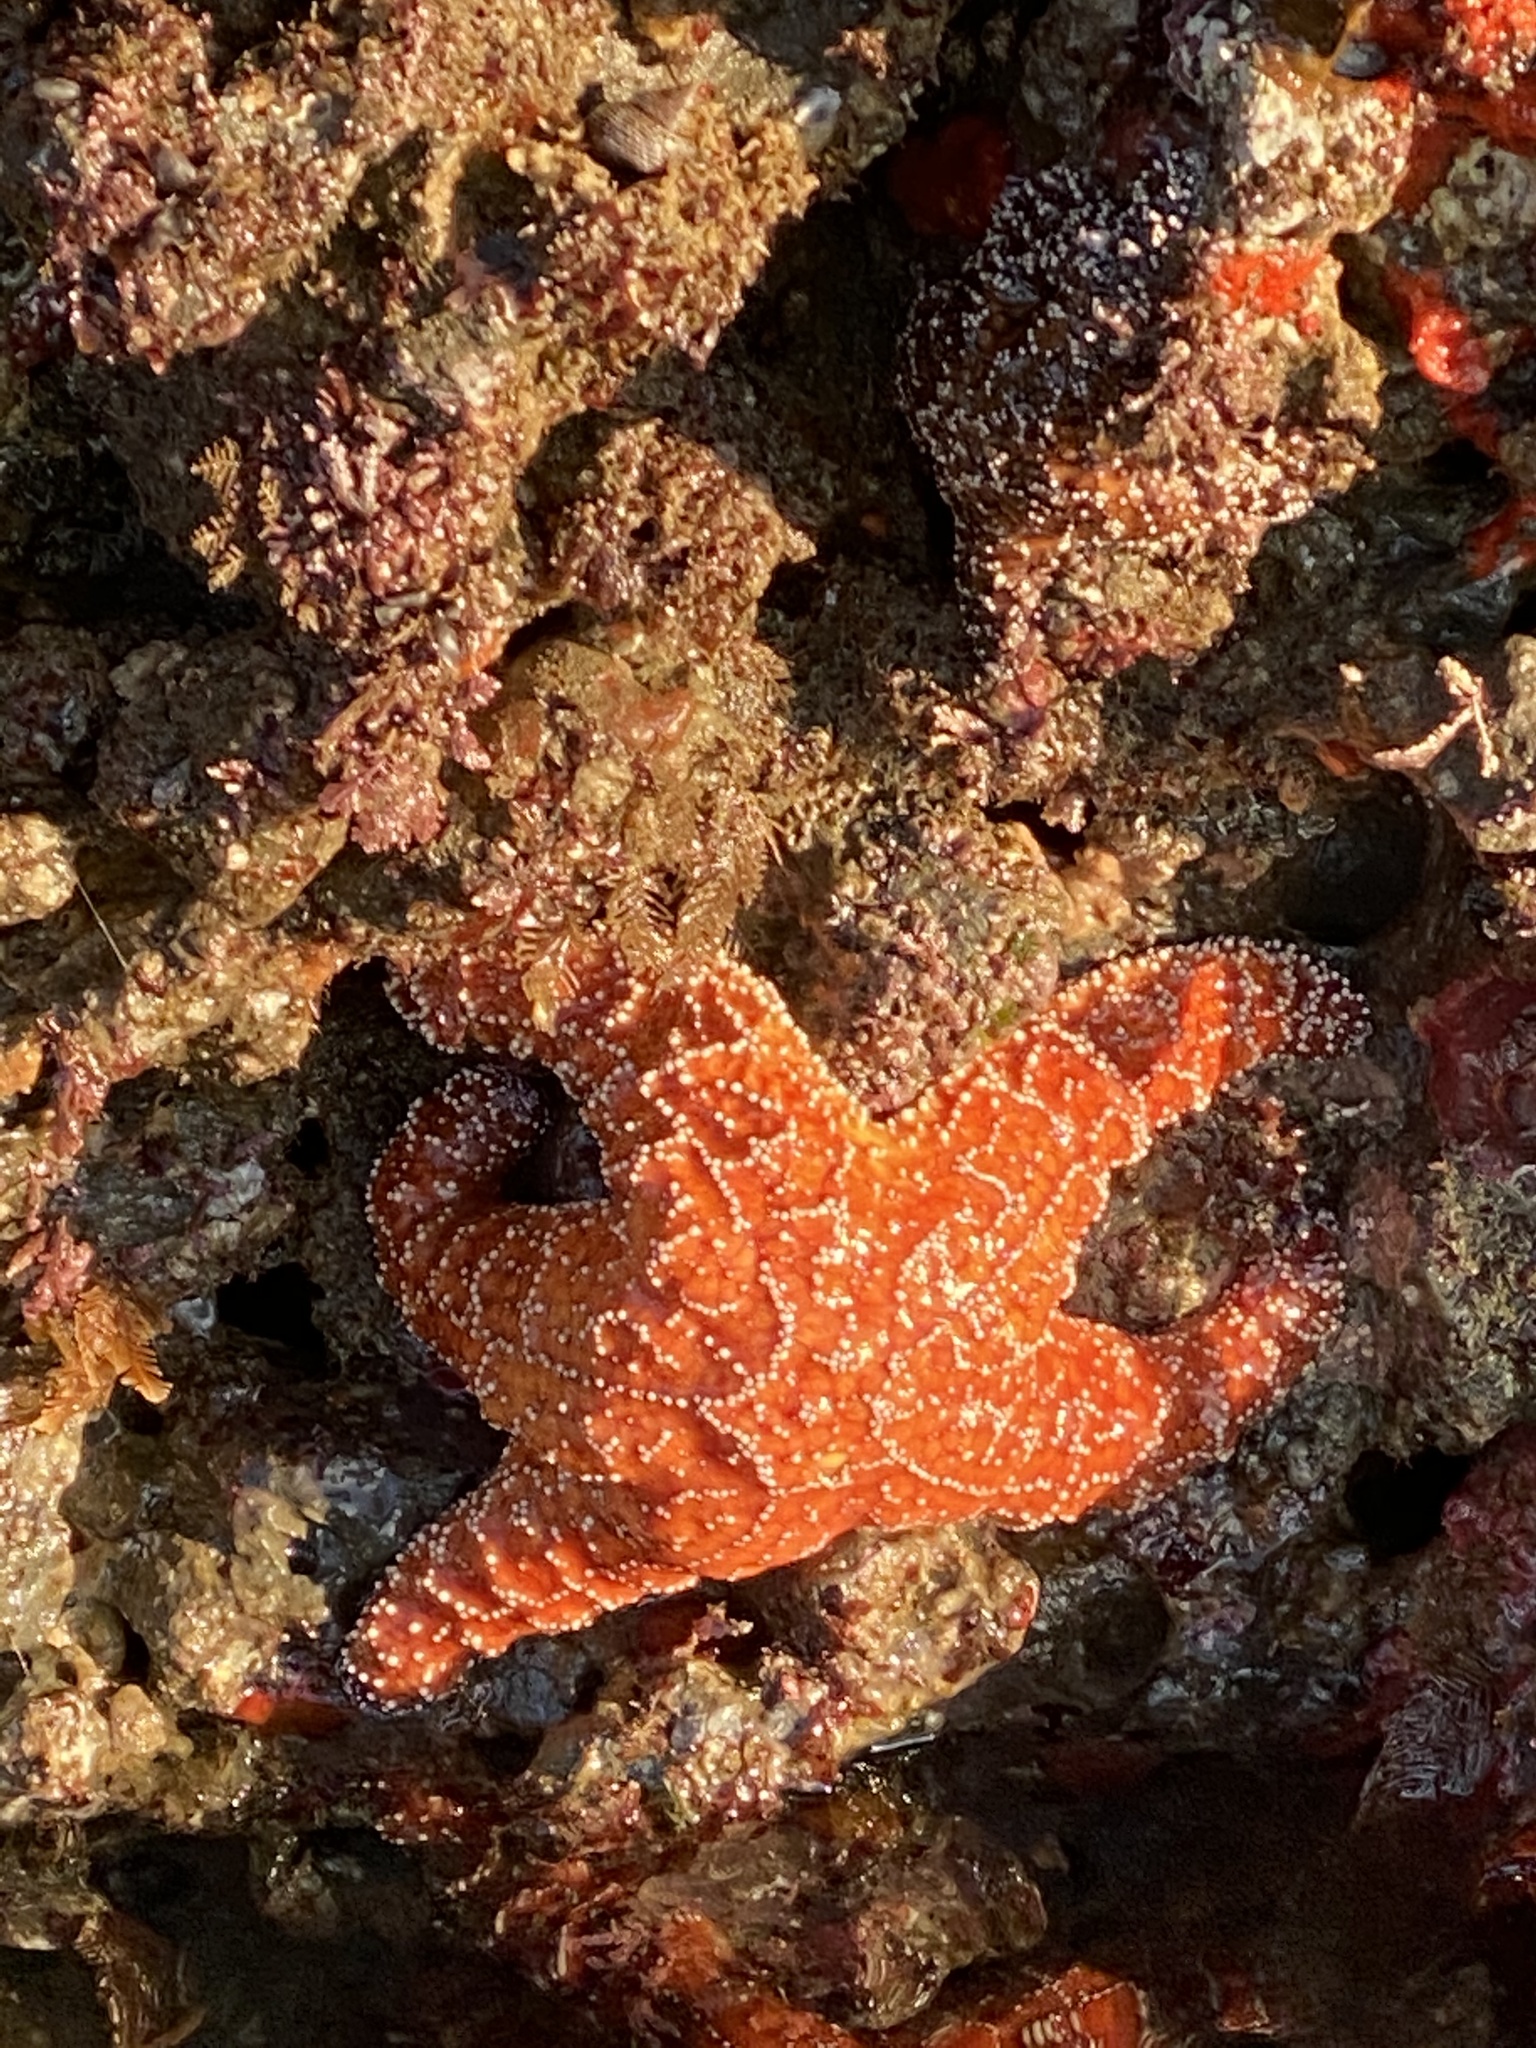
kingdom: Animalia
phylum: Echinodermata
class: Asteroidea
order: Forcipulatida
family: Asteriidae
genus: Pisaster
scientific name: Pisaster ochraceus
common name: Ochre stars
